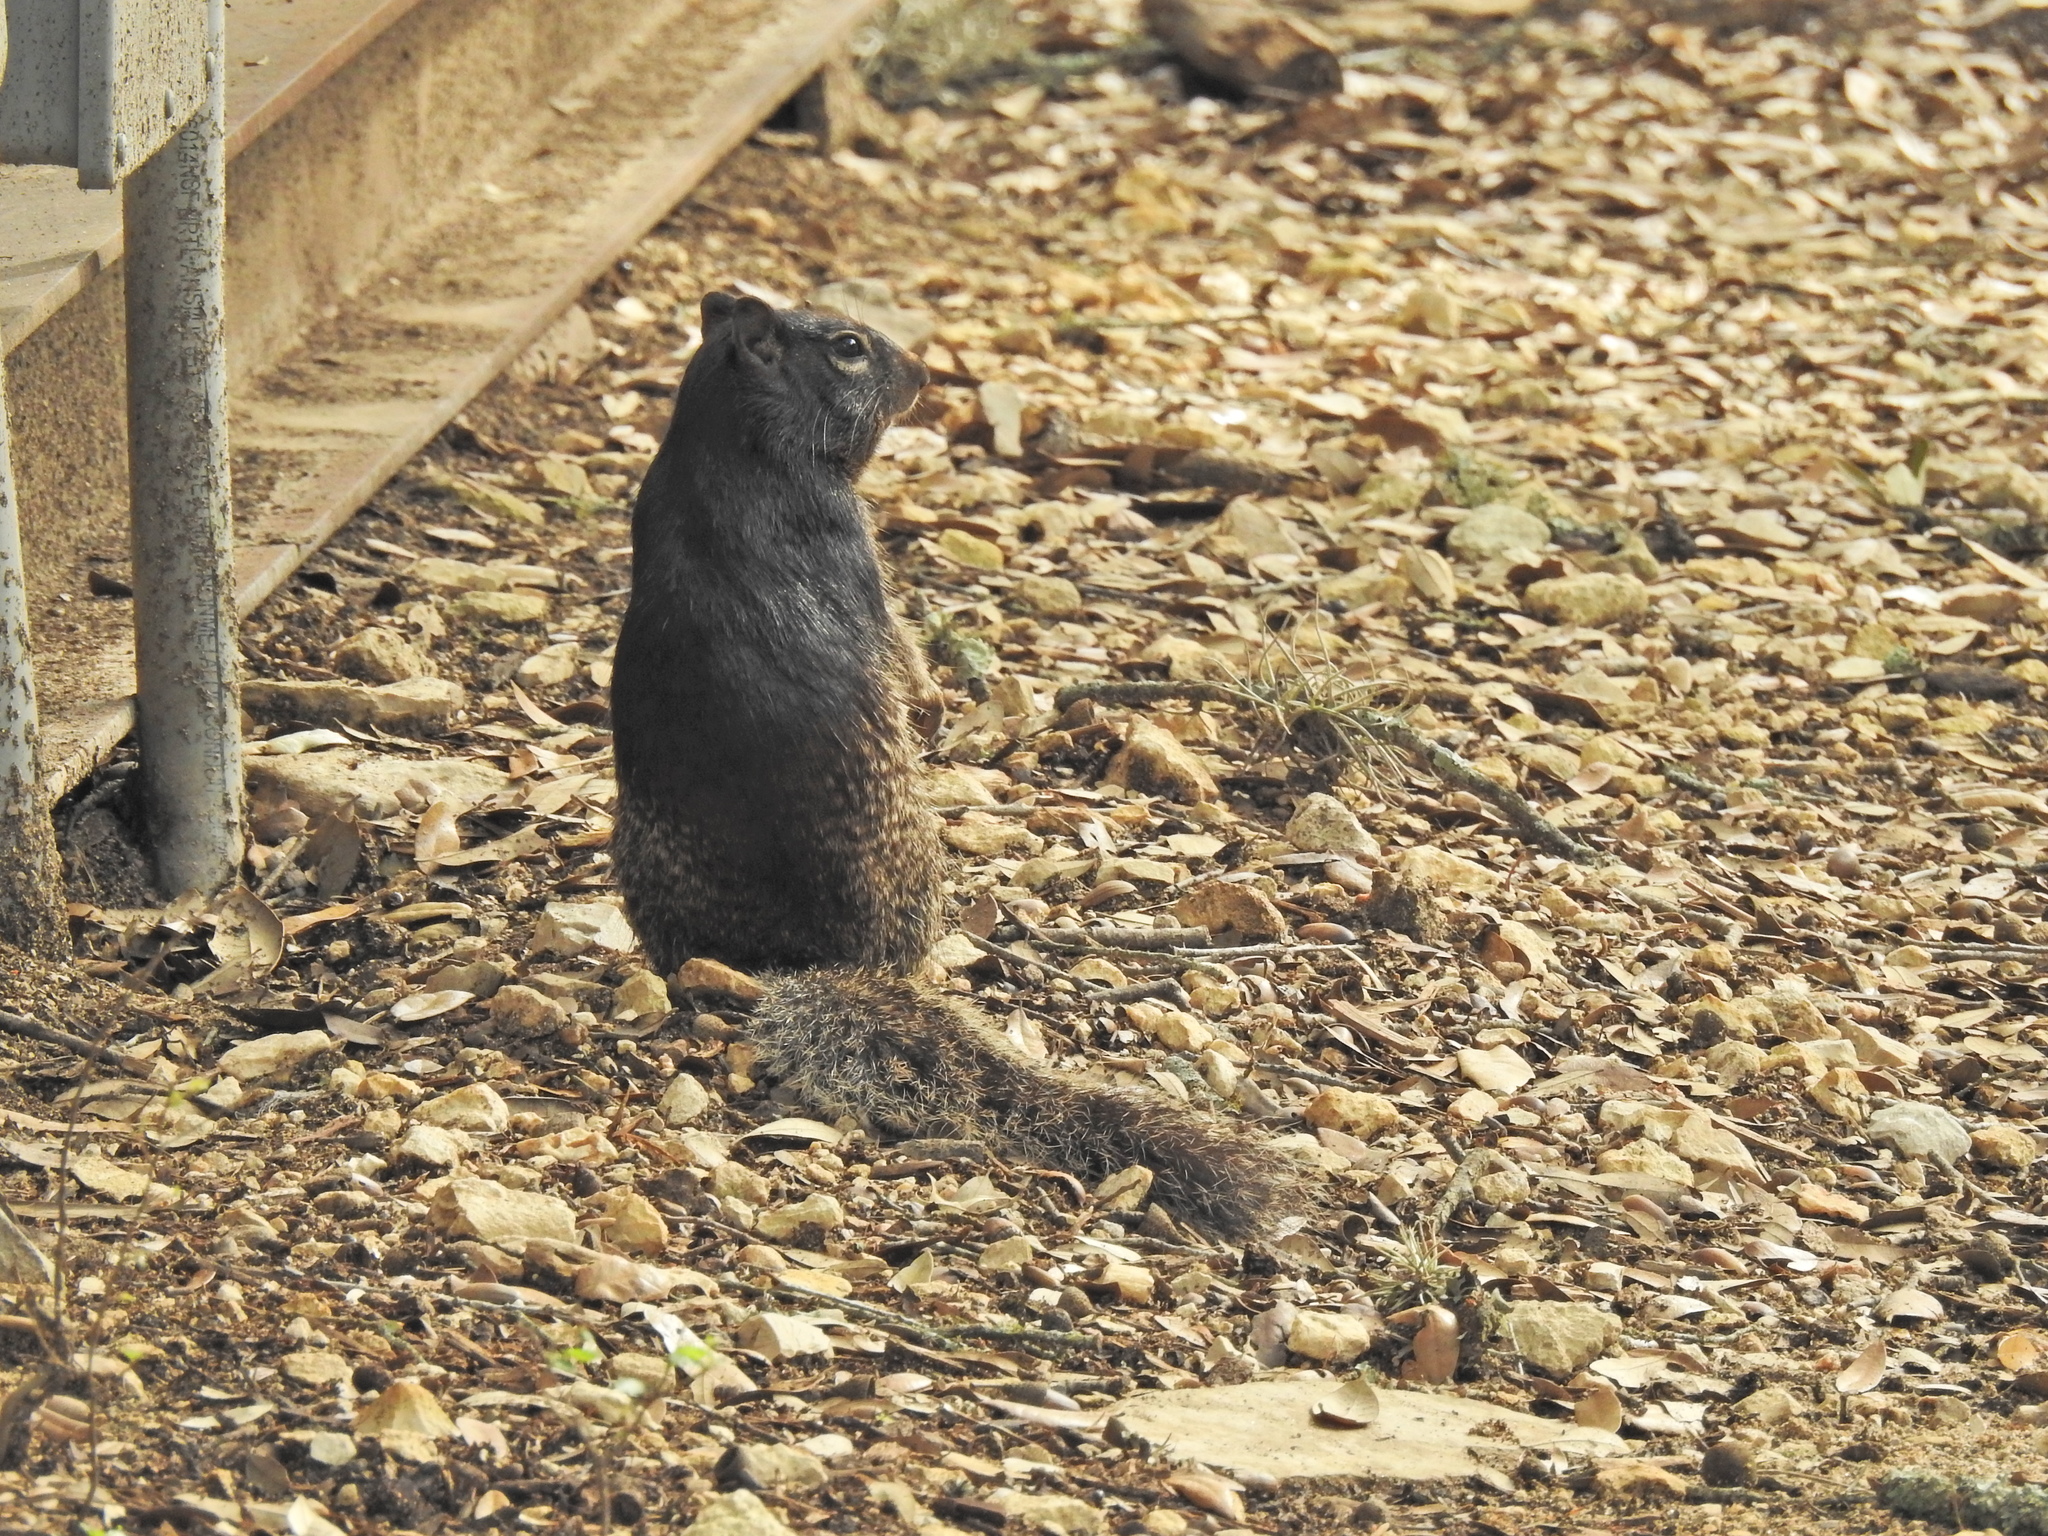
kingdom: Animalia
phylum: Chordata
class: Mammalia
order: Rodentia
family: Sciuridae
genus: Otospermophilus
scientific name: Otospermophilus variegatus
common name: Rock squirrel
